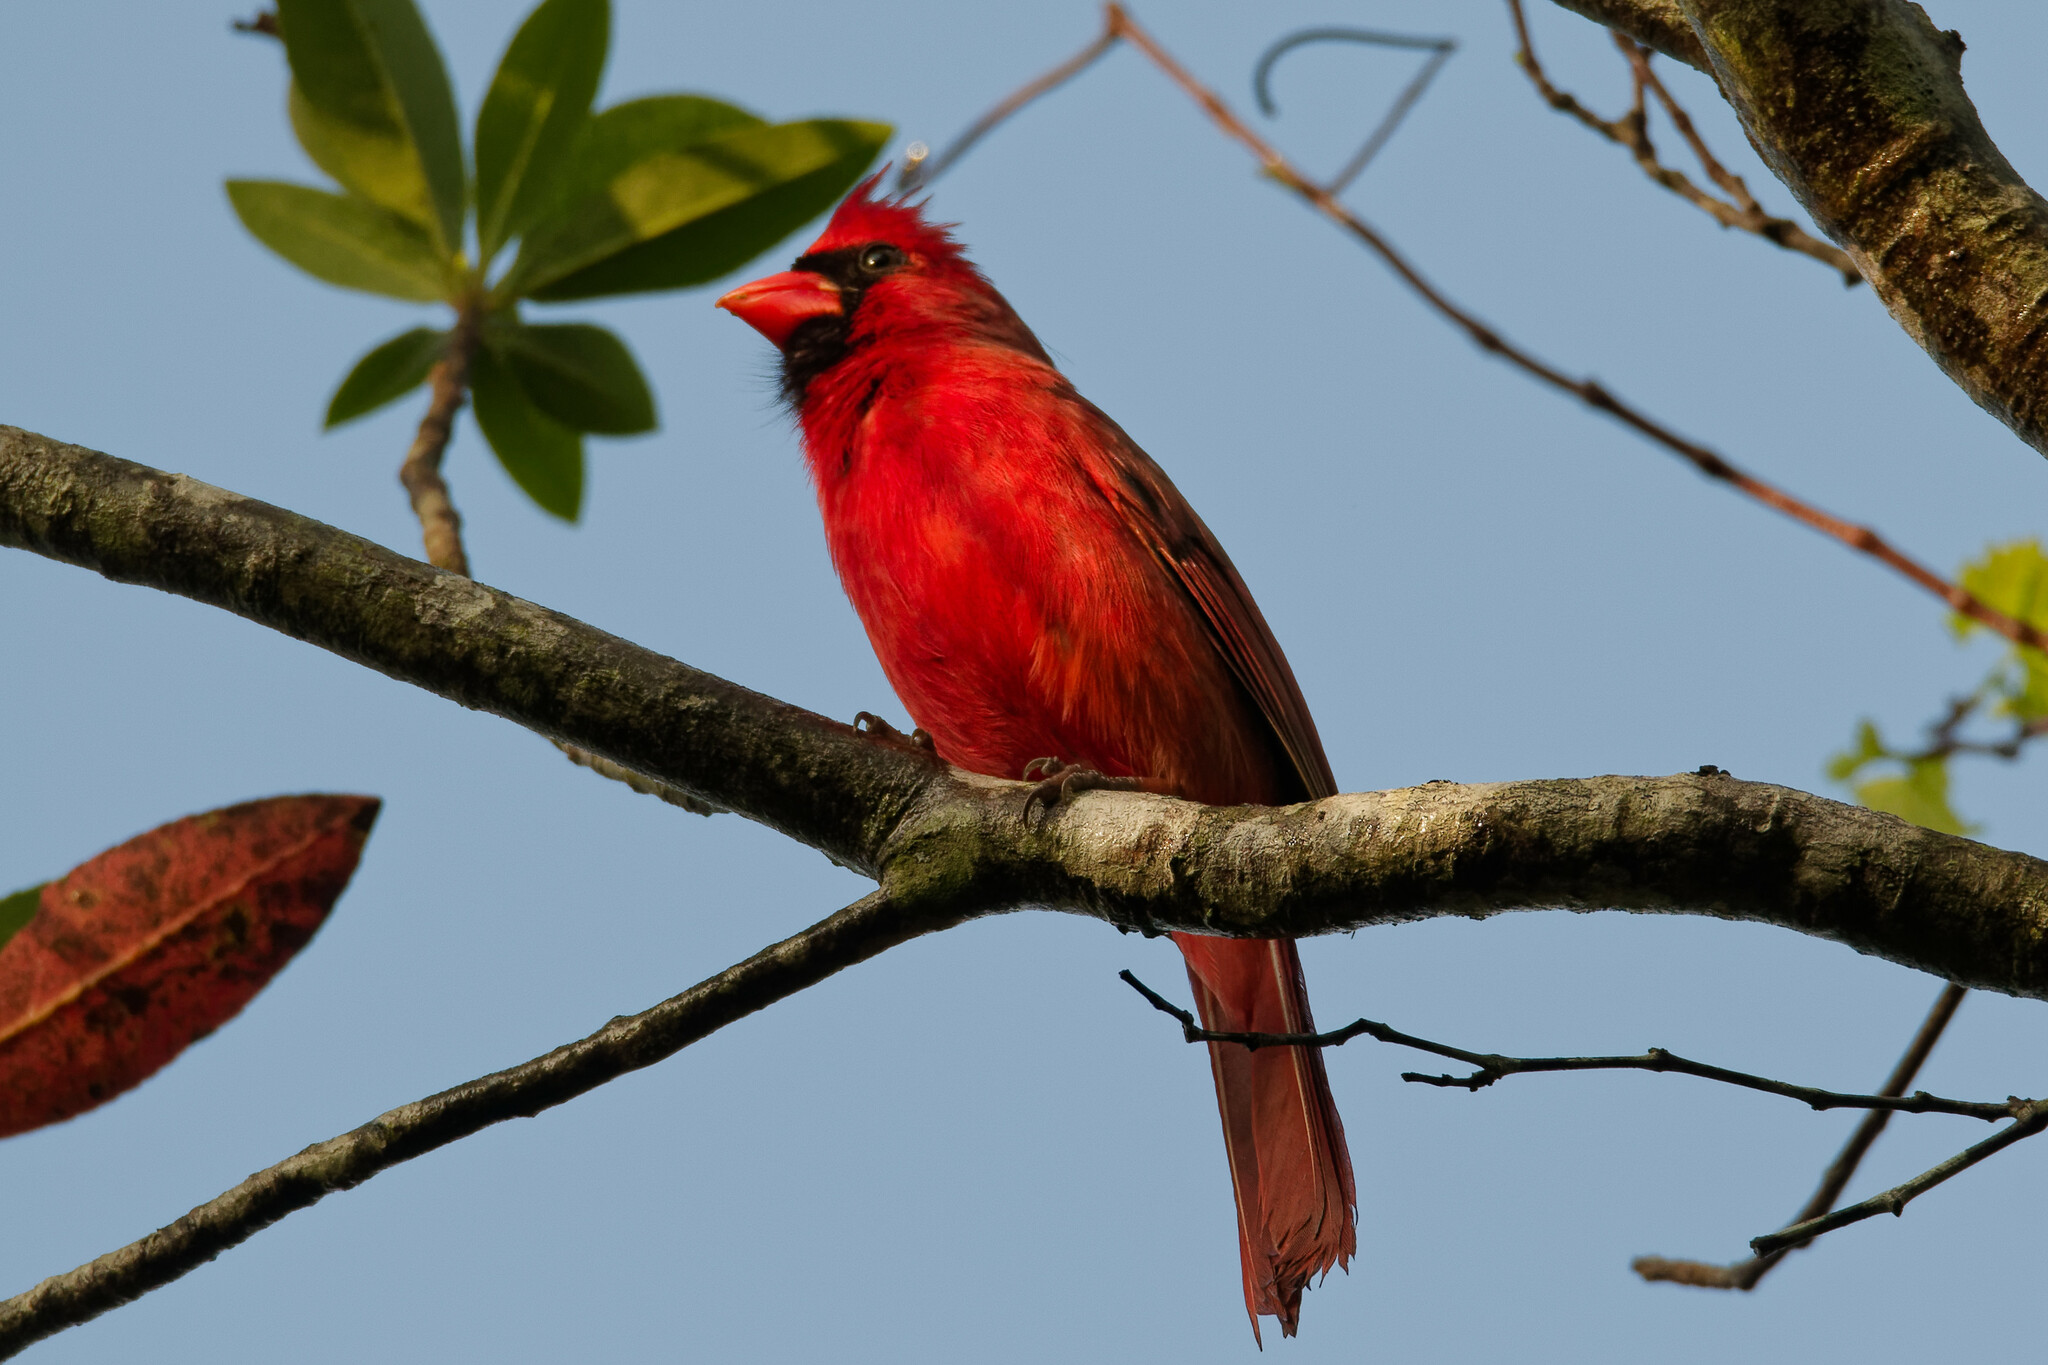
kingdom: Animalia
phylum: Chordata
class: Aves
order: Passeriformes
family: Cardinalidae
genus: Cardinalis
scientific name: Cardinalis cardinalis
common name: Northern cardinal
